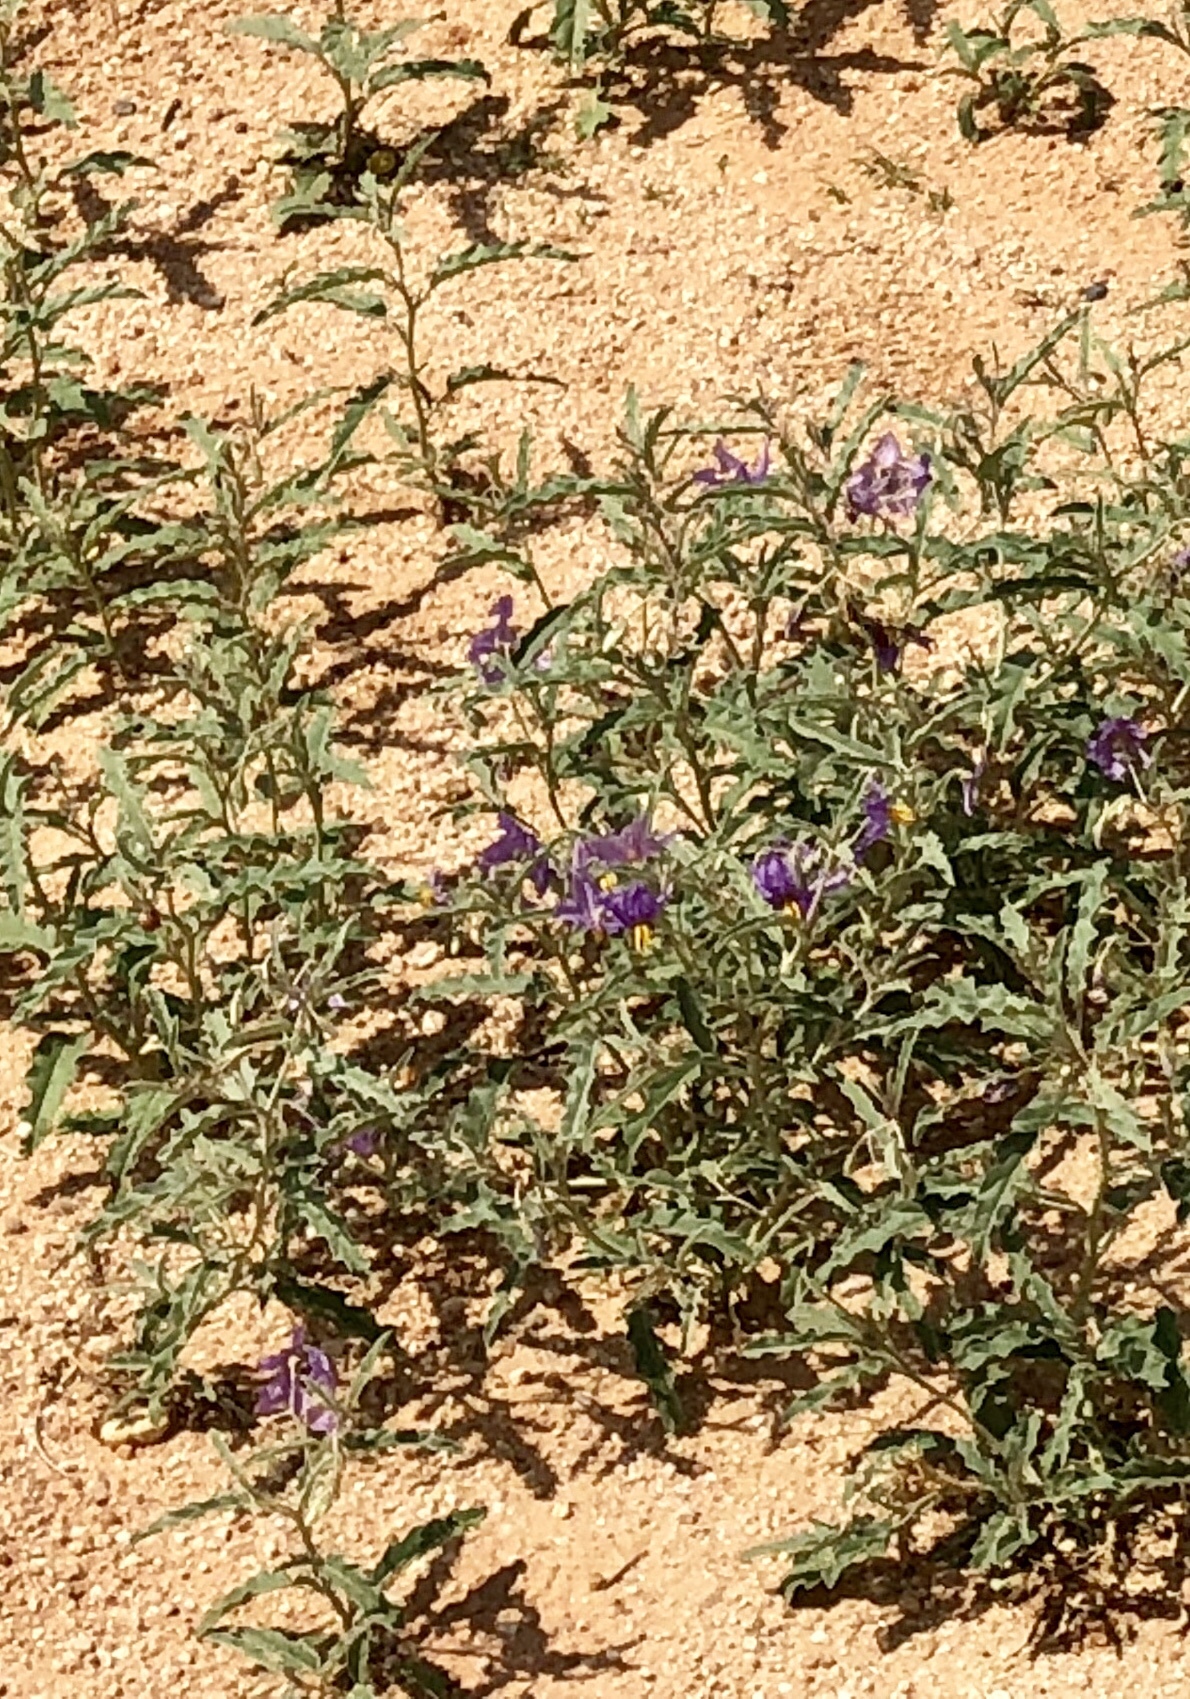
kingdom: Plantae
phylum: Tracheophyta
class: Magnoliopsida
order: Solanales
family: Solanaceae
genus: Solanum
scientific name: Solanum elaeagnifolium
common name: Silverleaf nightshade
